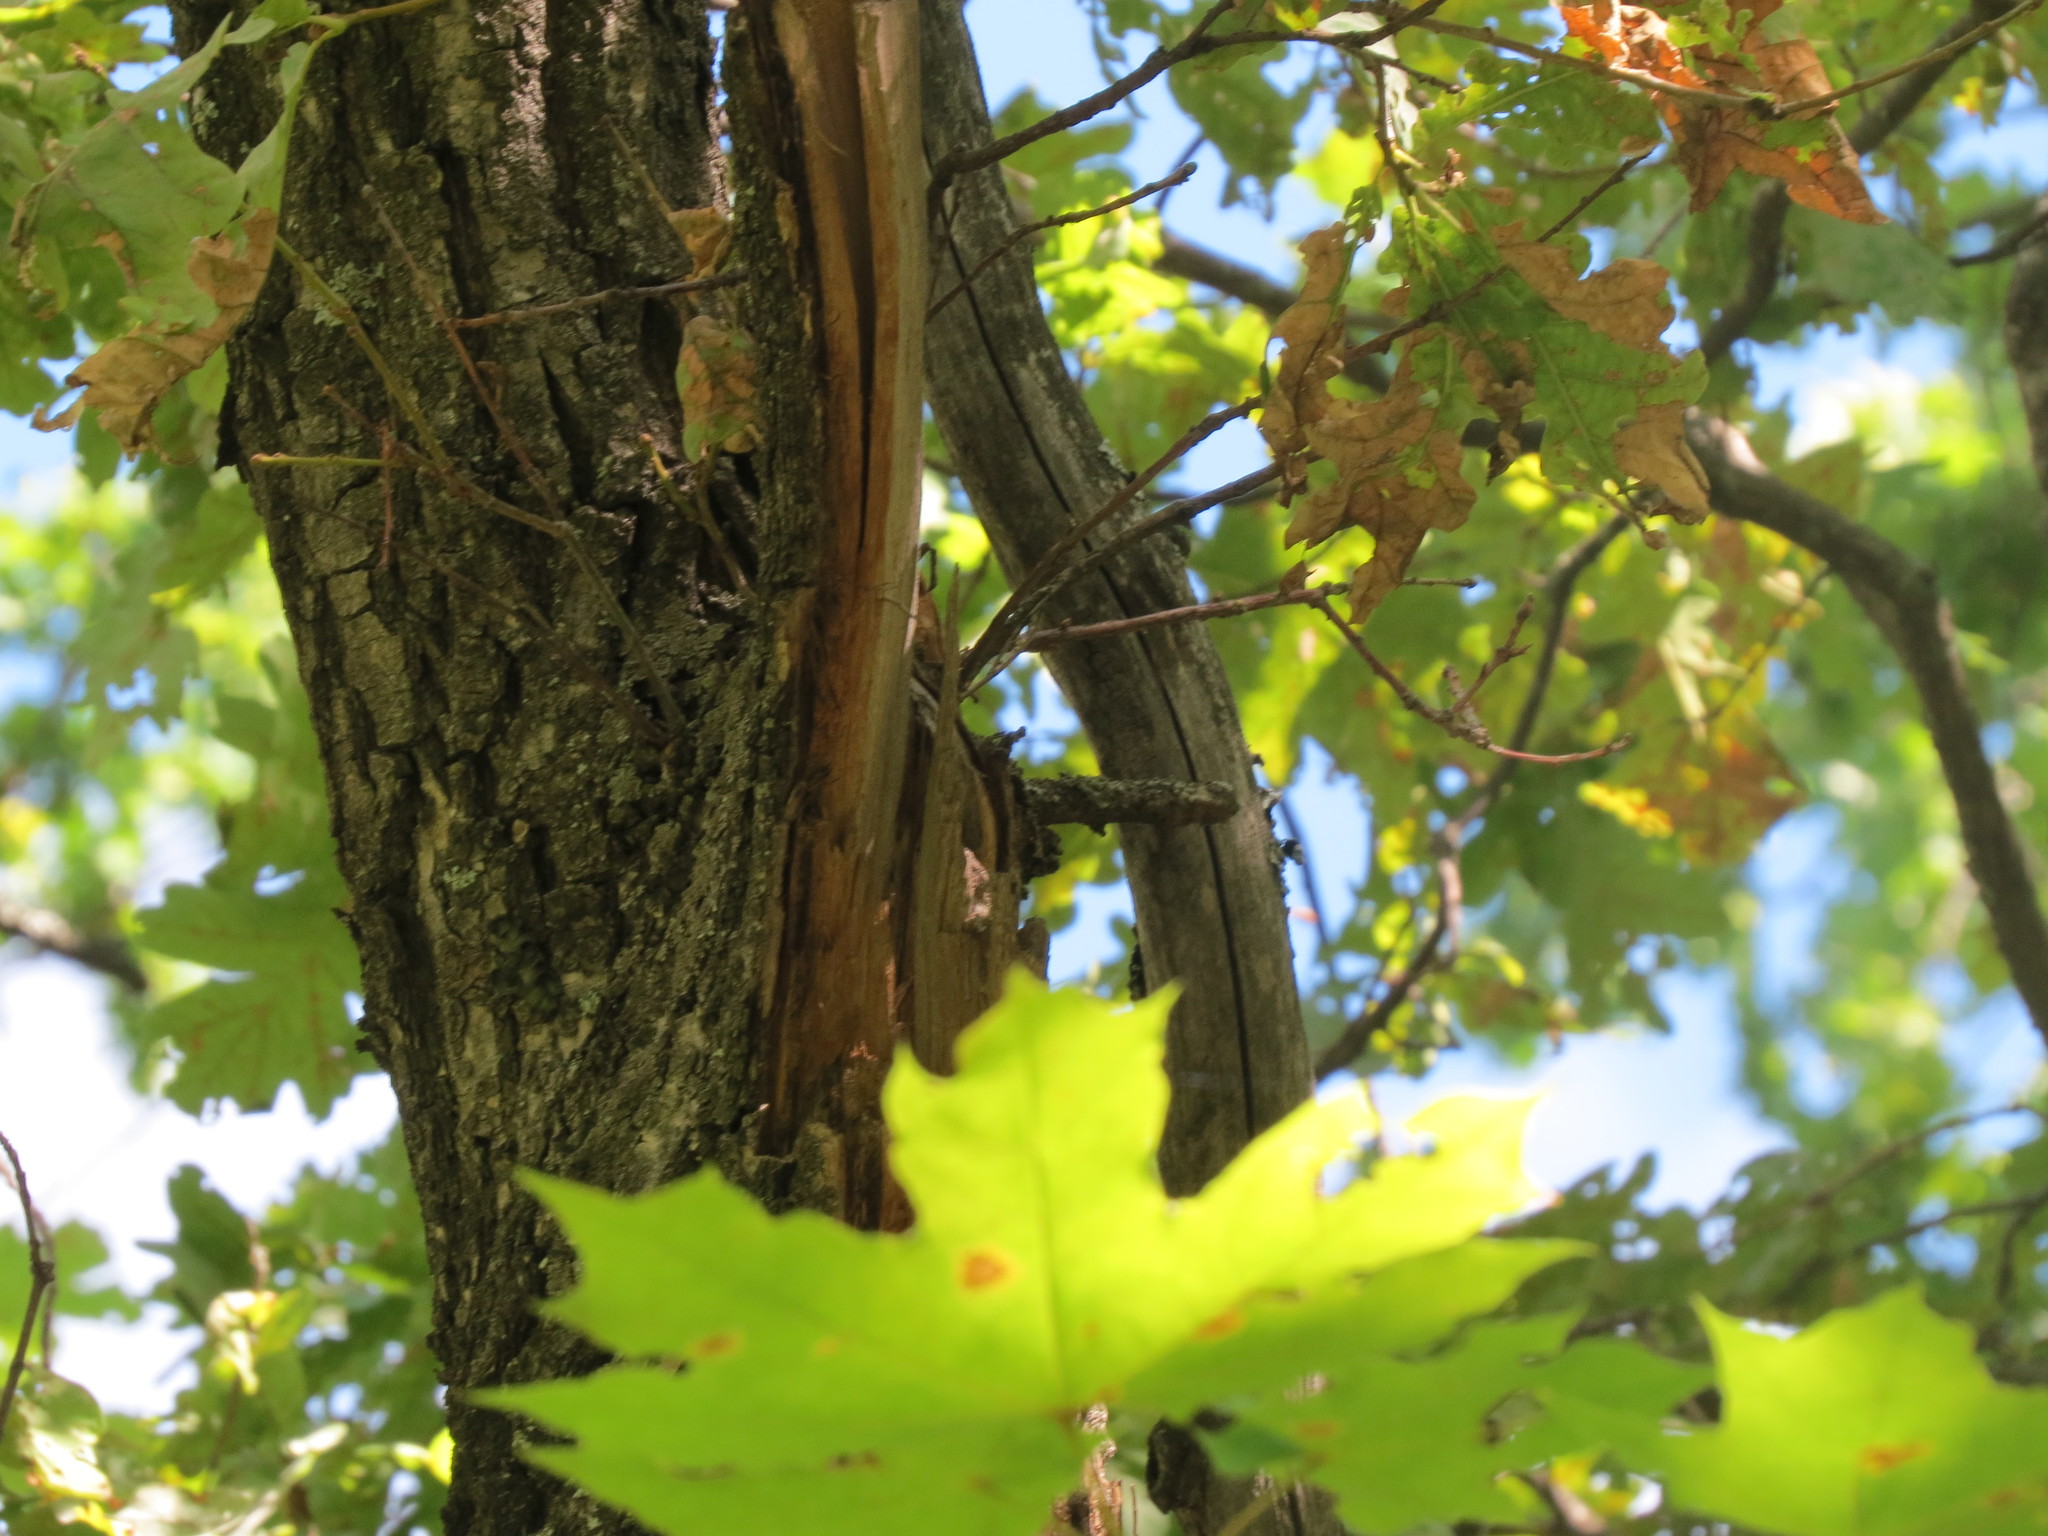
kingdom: Plantae
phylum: Tracheophyta
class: Magnoliopsida
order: Sapindales
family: Sapindaceae
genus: Acer
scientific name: Acer platanoides
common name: Norway maple
